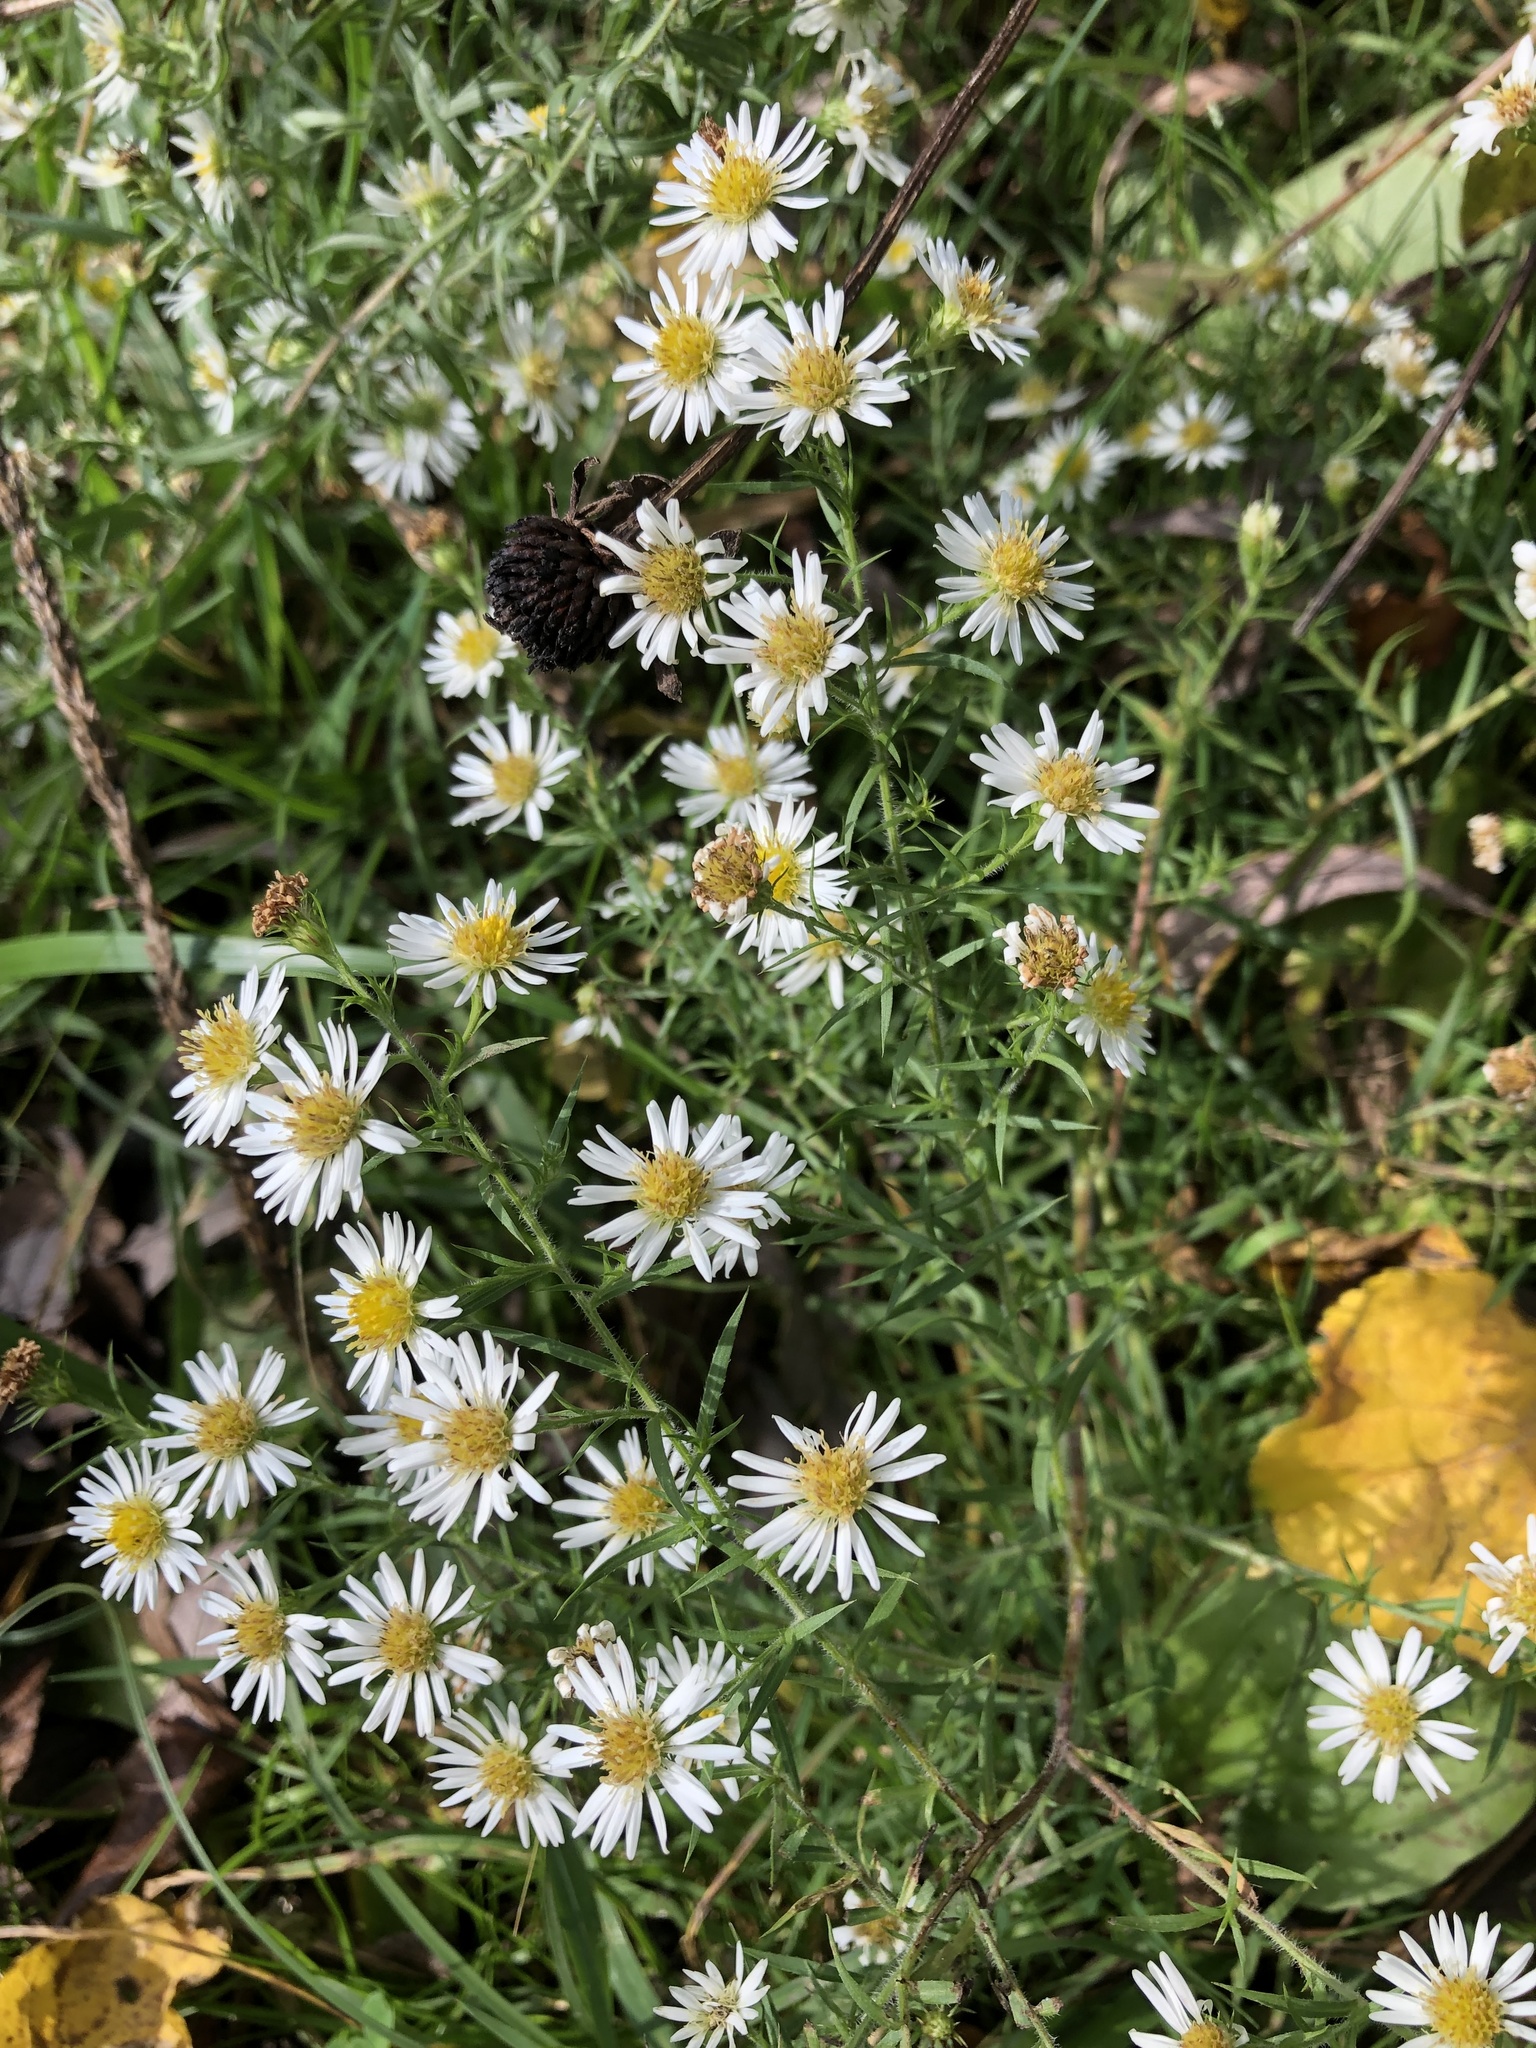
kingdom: Plantae
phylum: Tracheophyta
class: Magnoliopsida
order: Asterales
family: Asteraceae
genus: Symphyotrichum
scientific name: Symphyotrichum pilosum
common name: Awl aster
